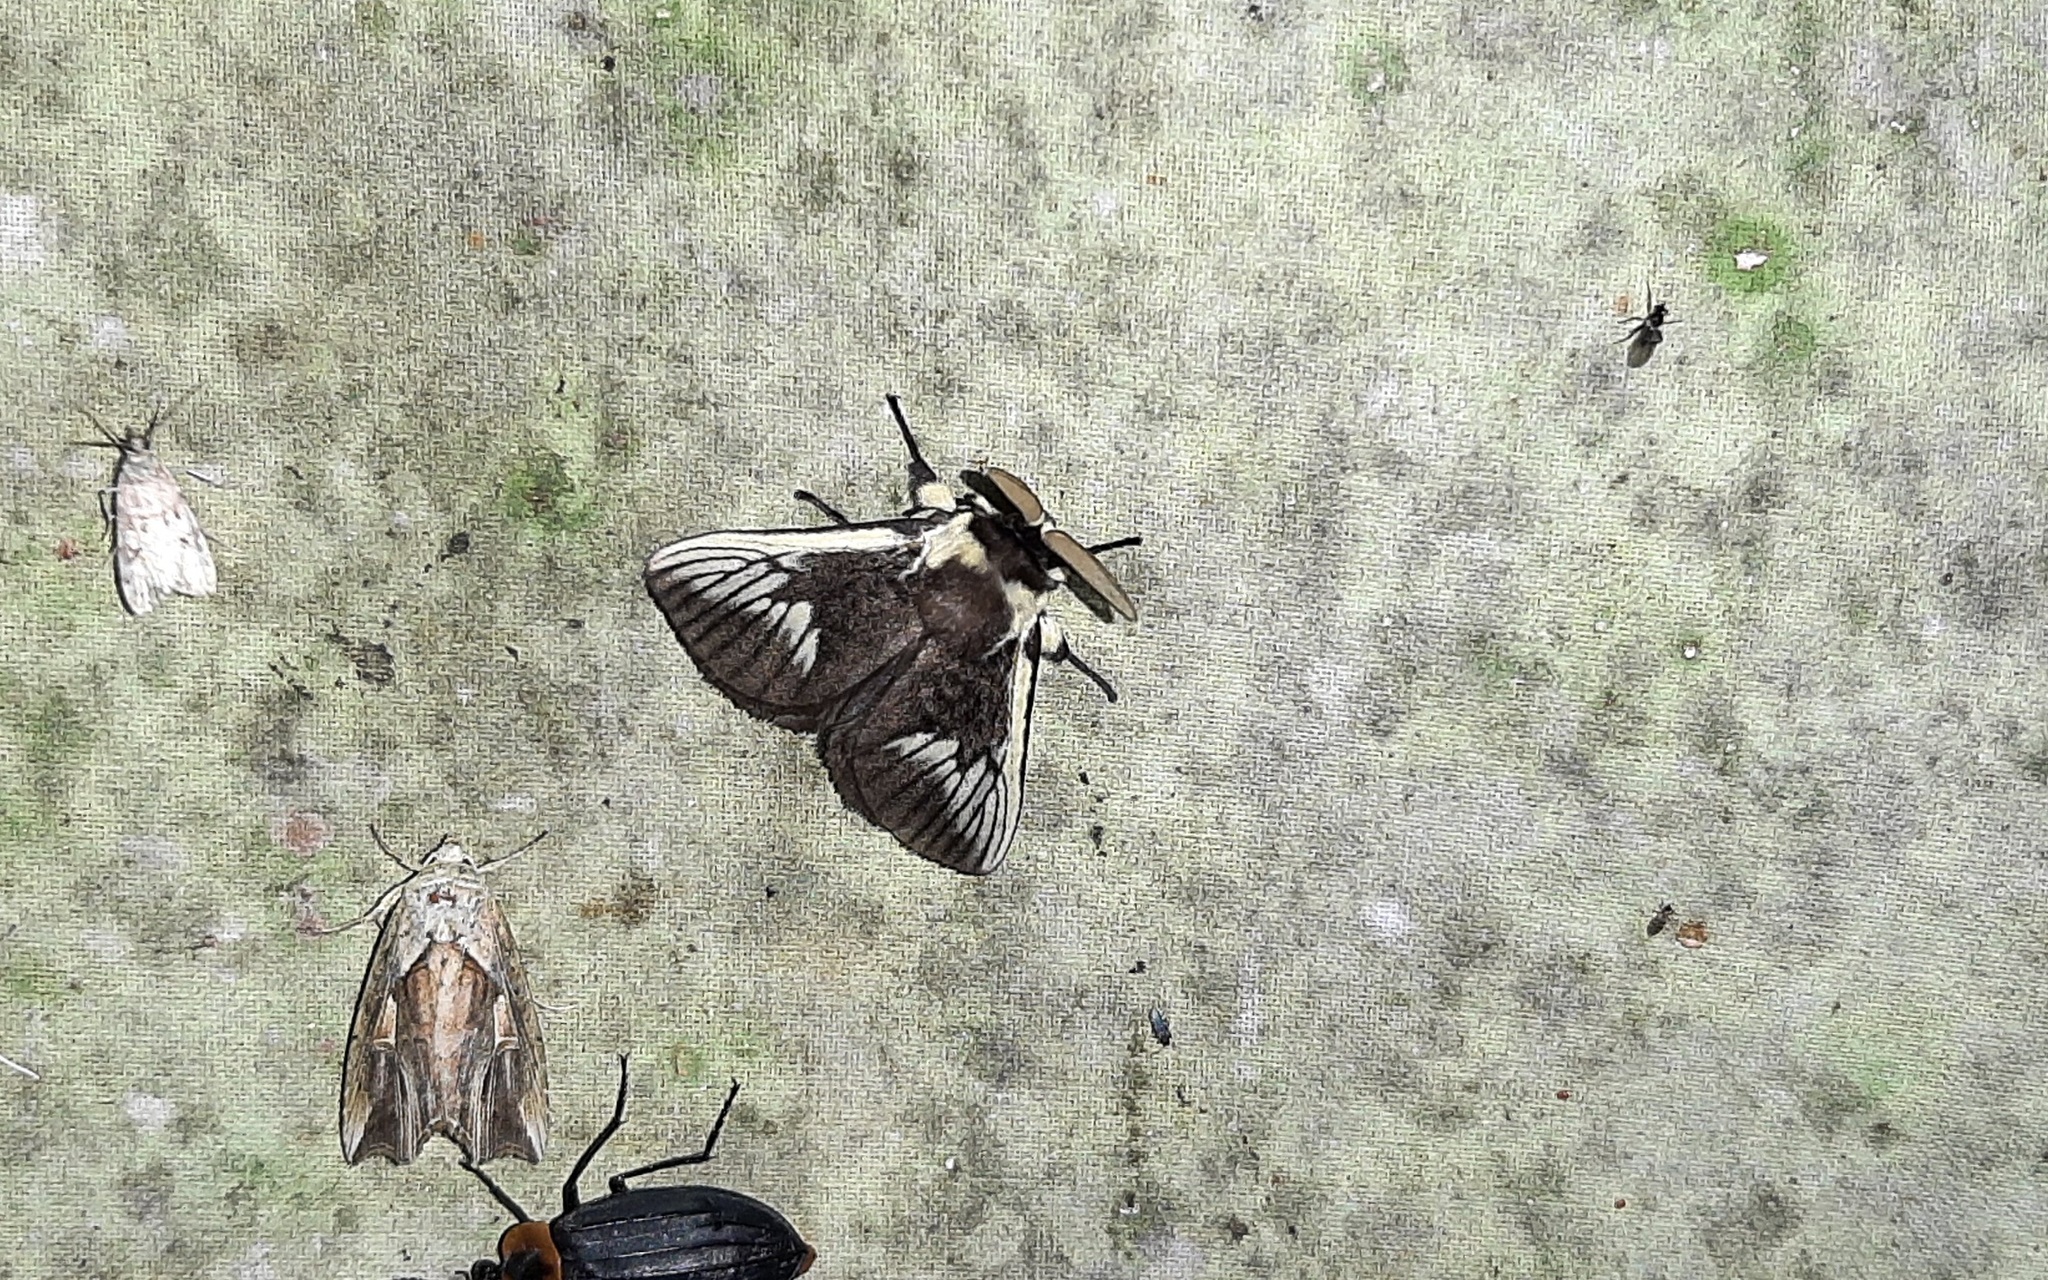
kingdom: Animalia
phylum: Arthropoda
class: Insecta
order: Lepidoptera
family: Megalopygidae
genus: Podalia
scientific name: Podalia angulata
